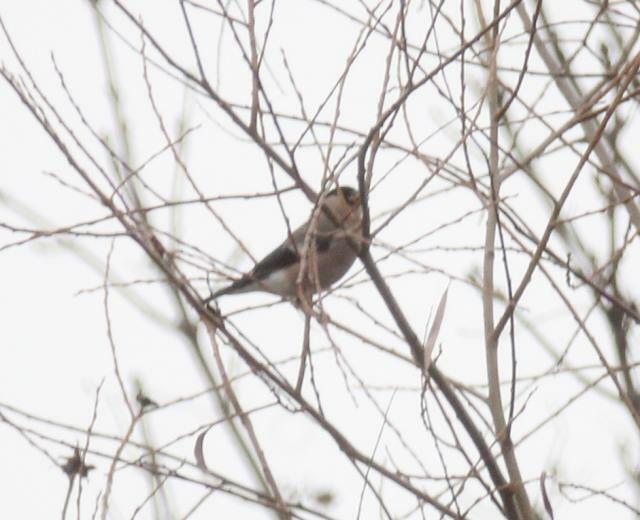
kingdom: Animalia
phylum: Chordata
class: Aves
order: Passeriformes
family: Fringillidae
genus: Pyrrhula
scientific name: Pyrrhula pyrrhula
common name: Eurasian bullfinch
